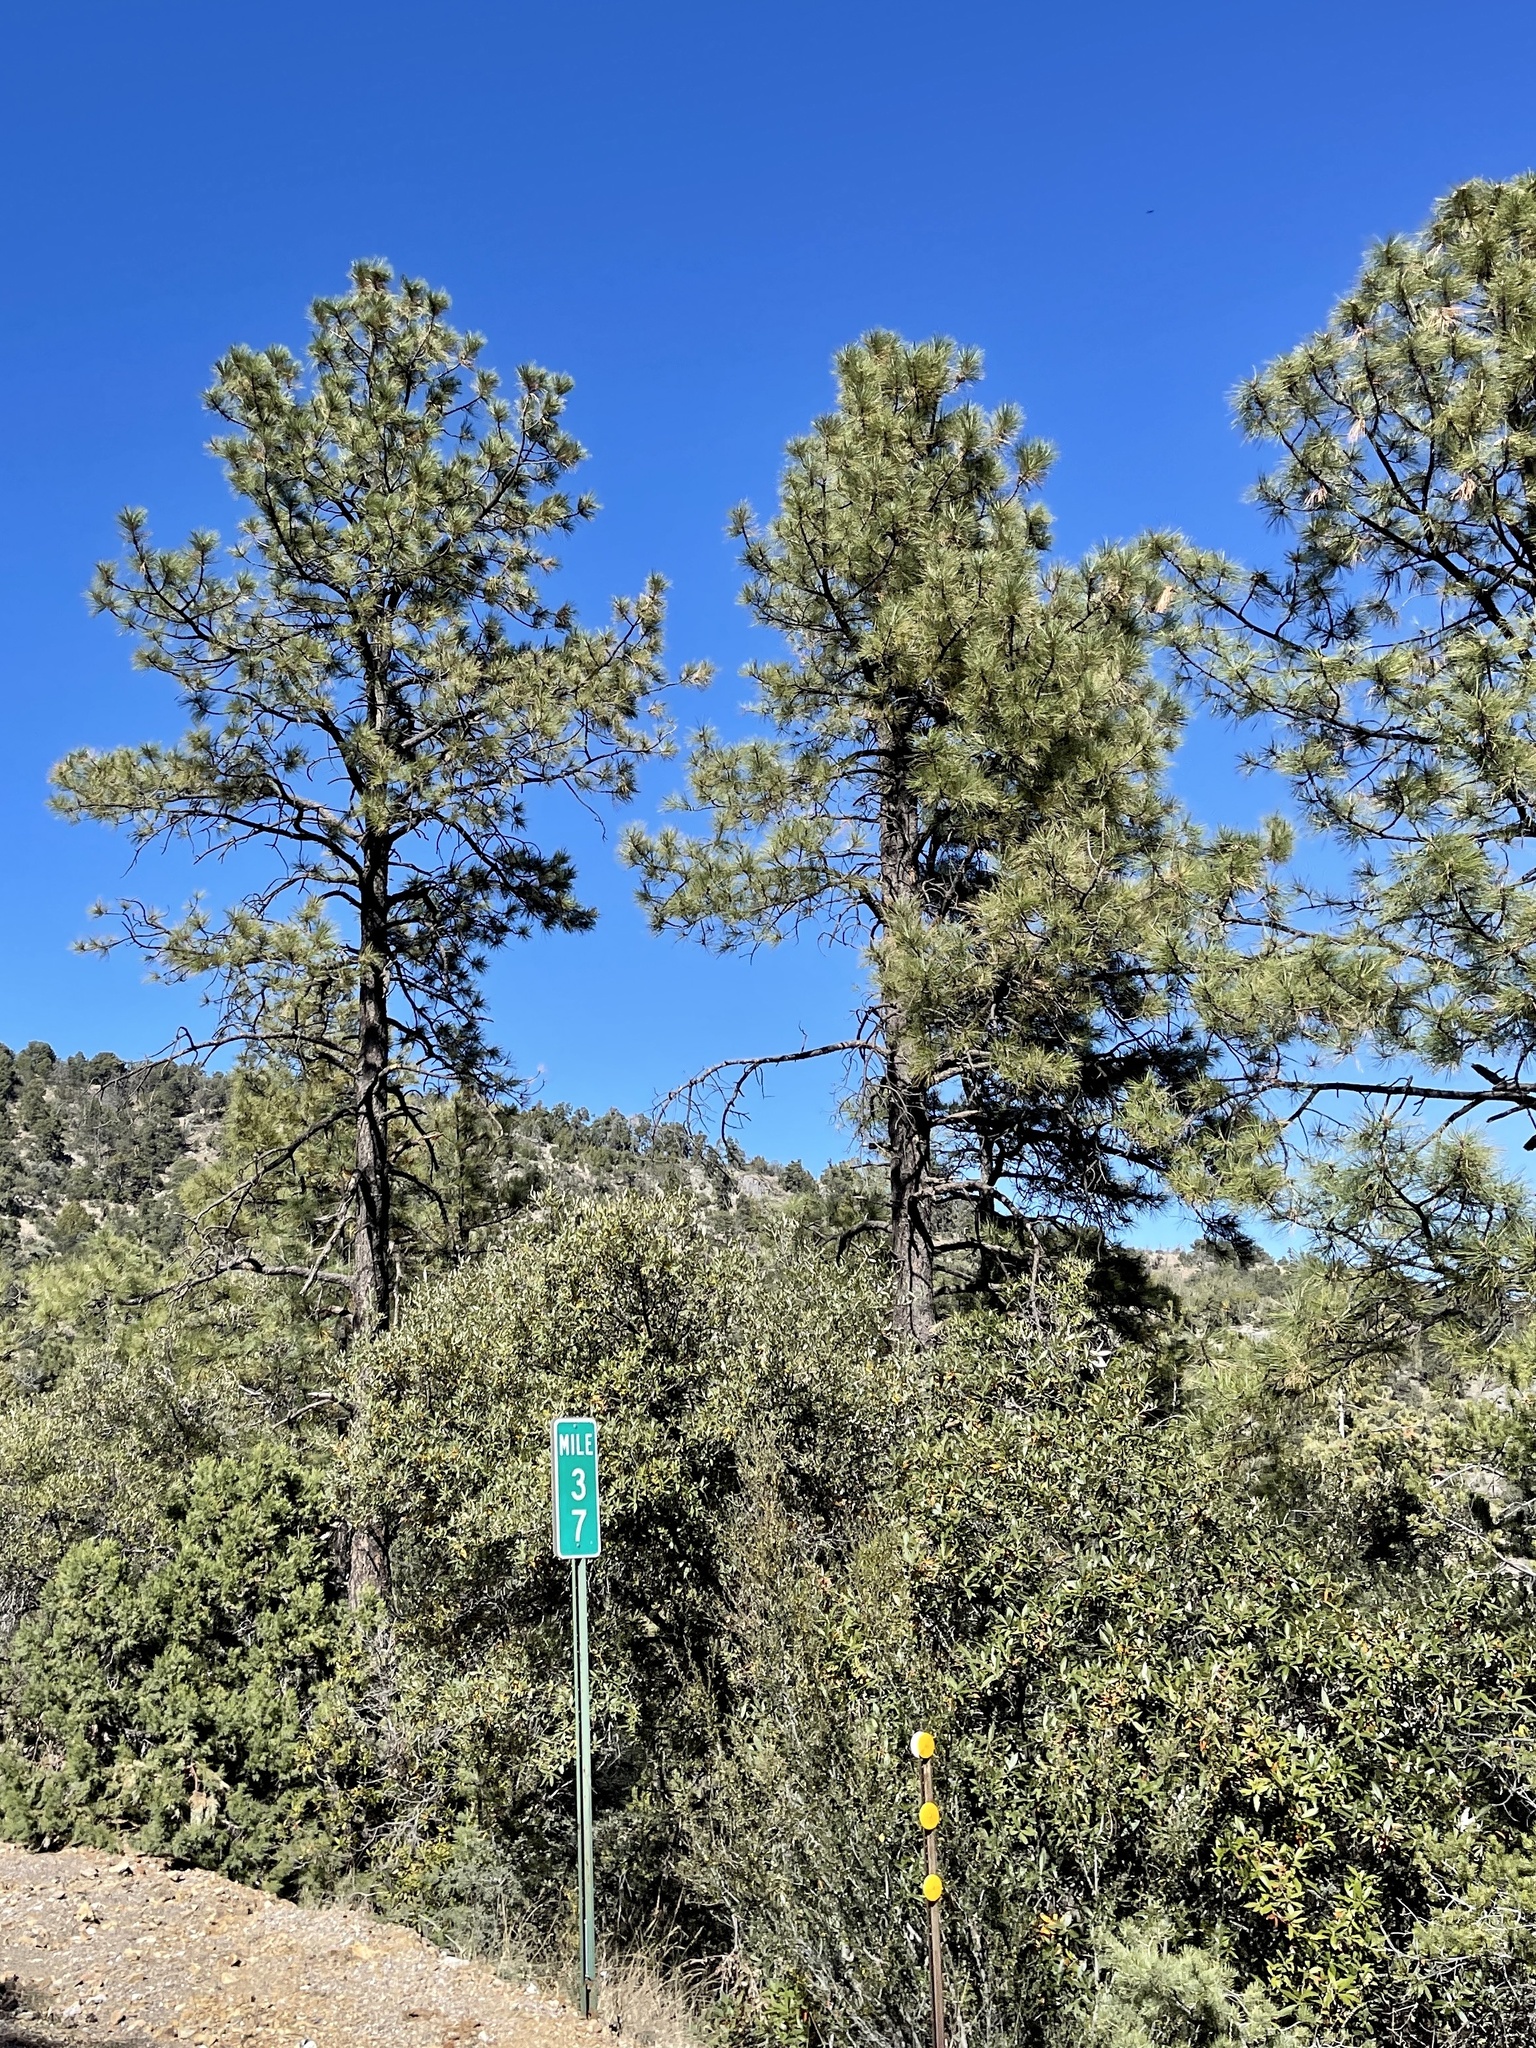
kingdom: Plantae
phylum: Tracheophyta
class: Pinopsida
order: Pinales
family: Pinaceae
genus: Pinus
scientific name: Pinus ponderosa
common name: Western yellow-pine
